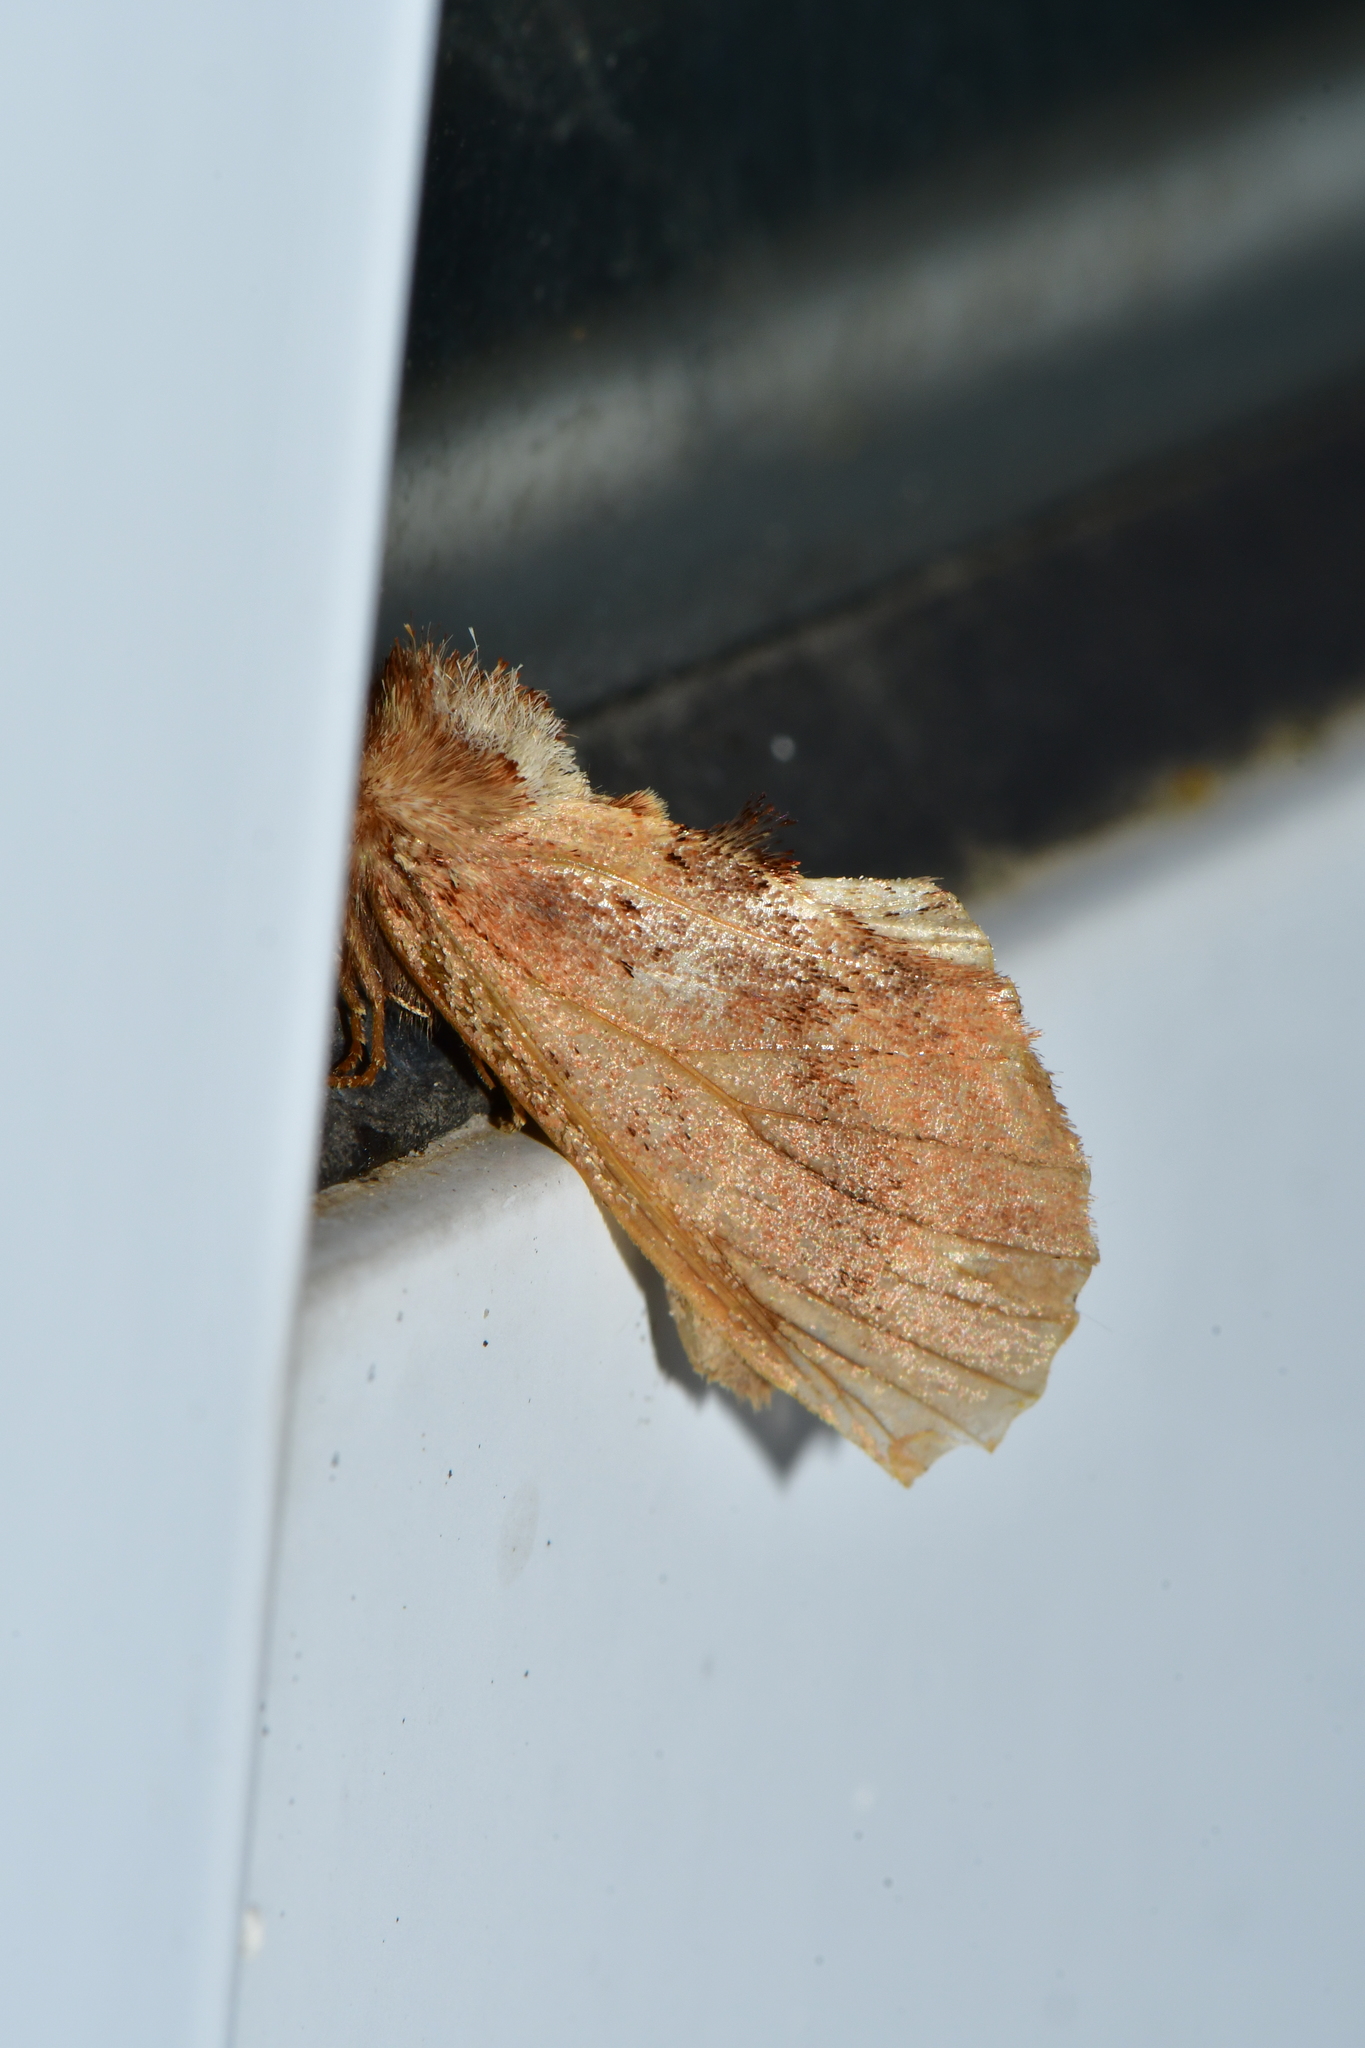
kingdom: Animalia
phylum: Arthropoda
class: Insecta
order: Lepidoptera
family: Notodontidae
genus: Ptilodon
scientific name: Ptilodon capucina
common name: Coxcomb prominent
